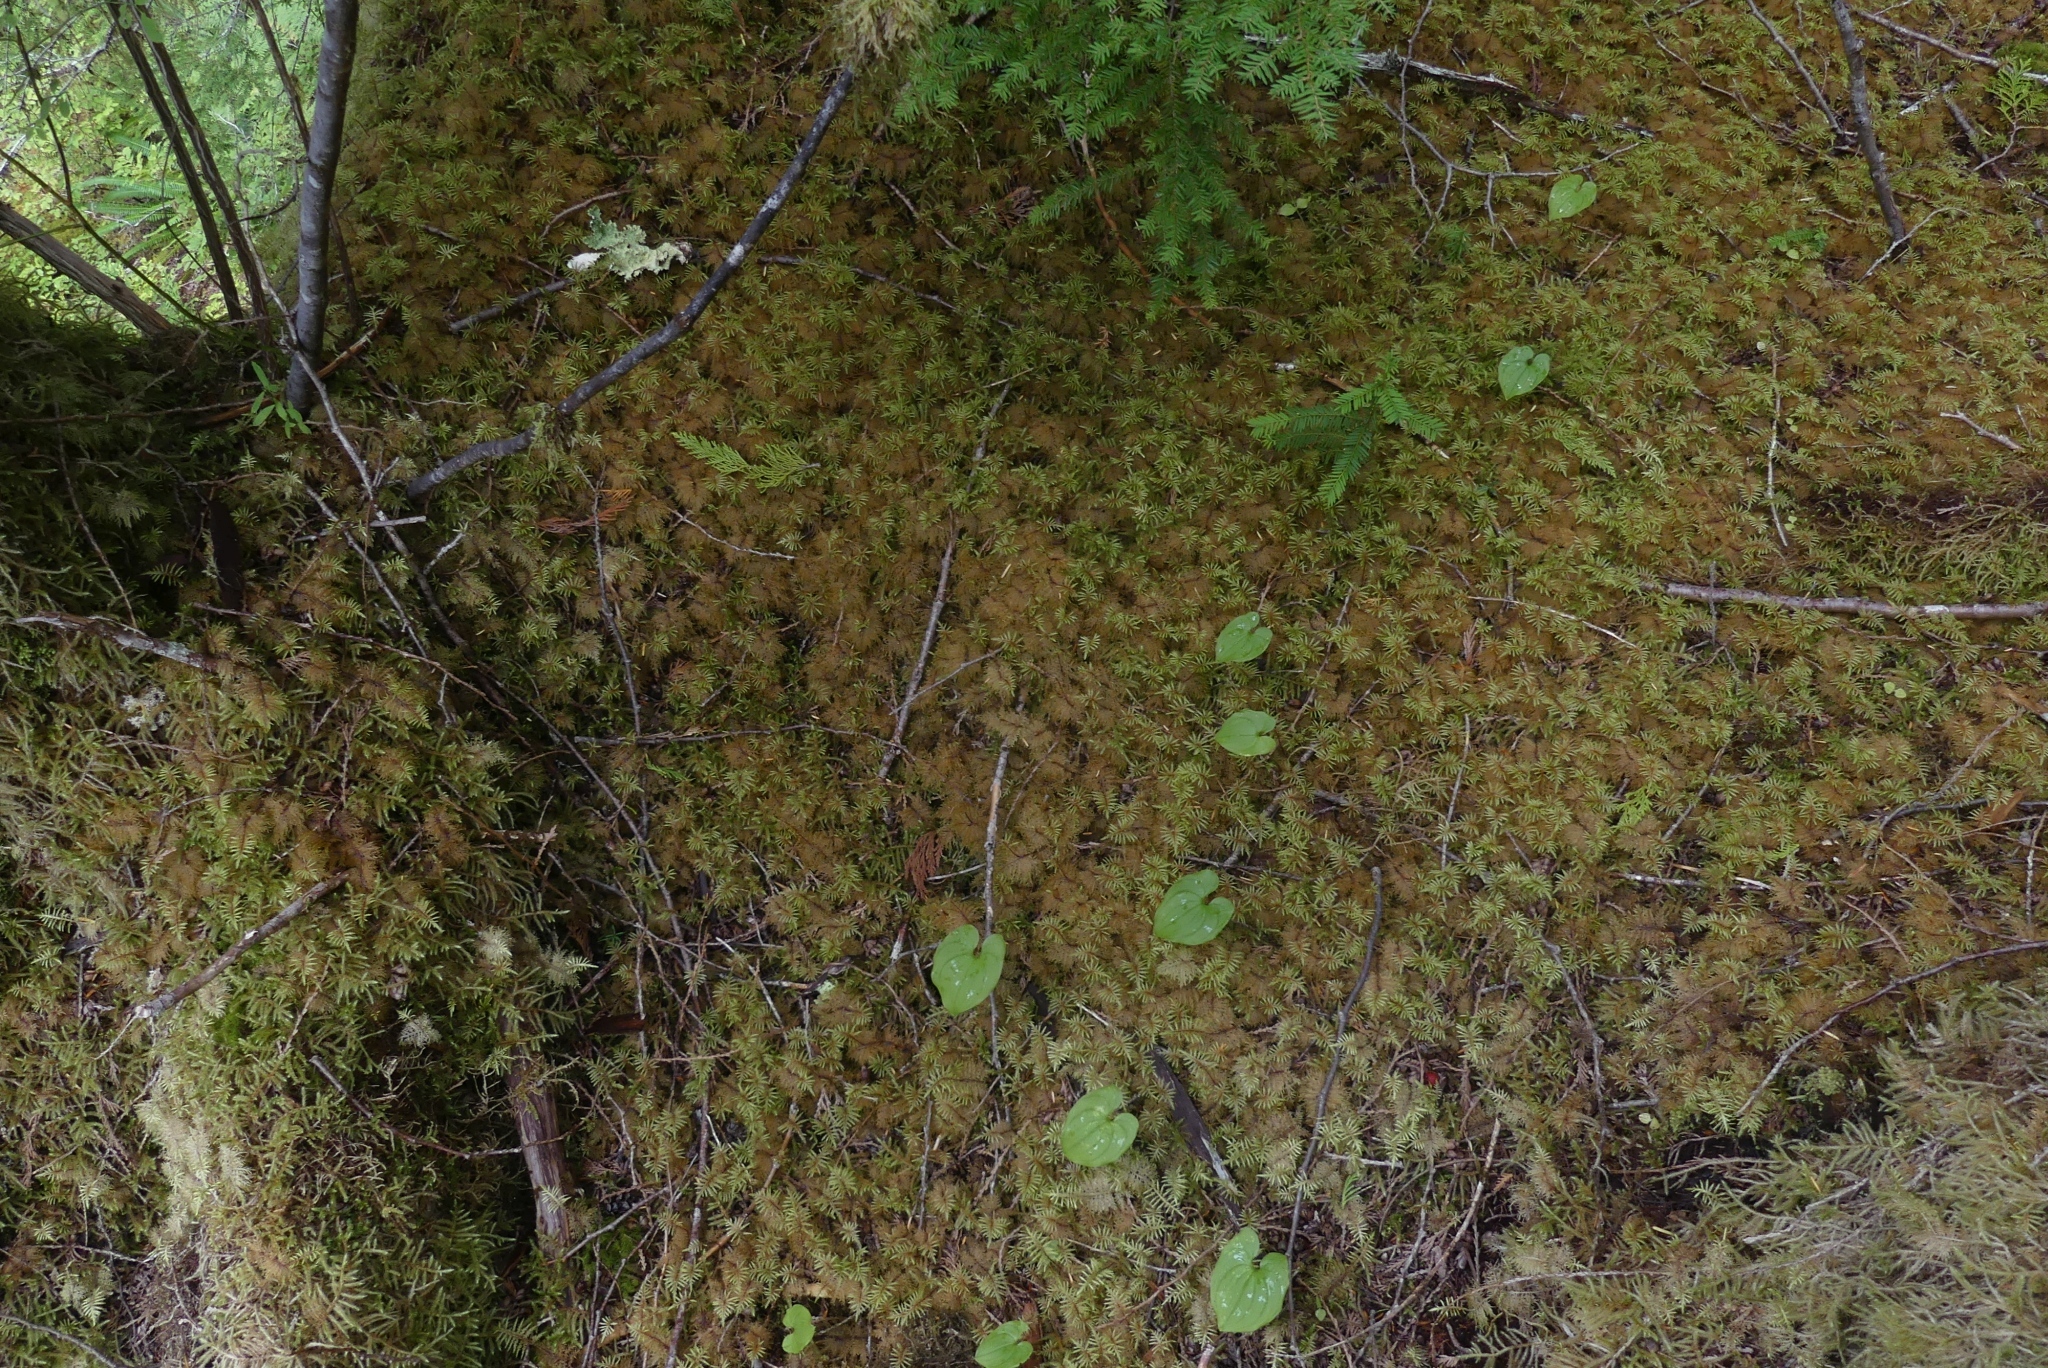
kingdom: Plantae
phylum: Bryophyta
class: Bryopsida
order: Hypnales
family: Hylocomiaceae
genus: Hylocomium
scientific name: Hylocomium splendens
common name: Stairstep moss
